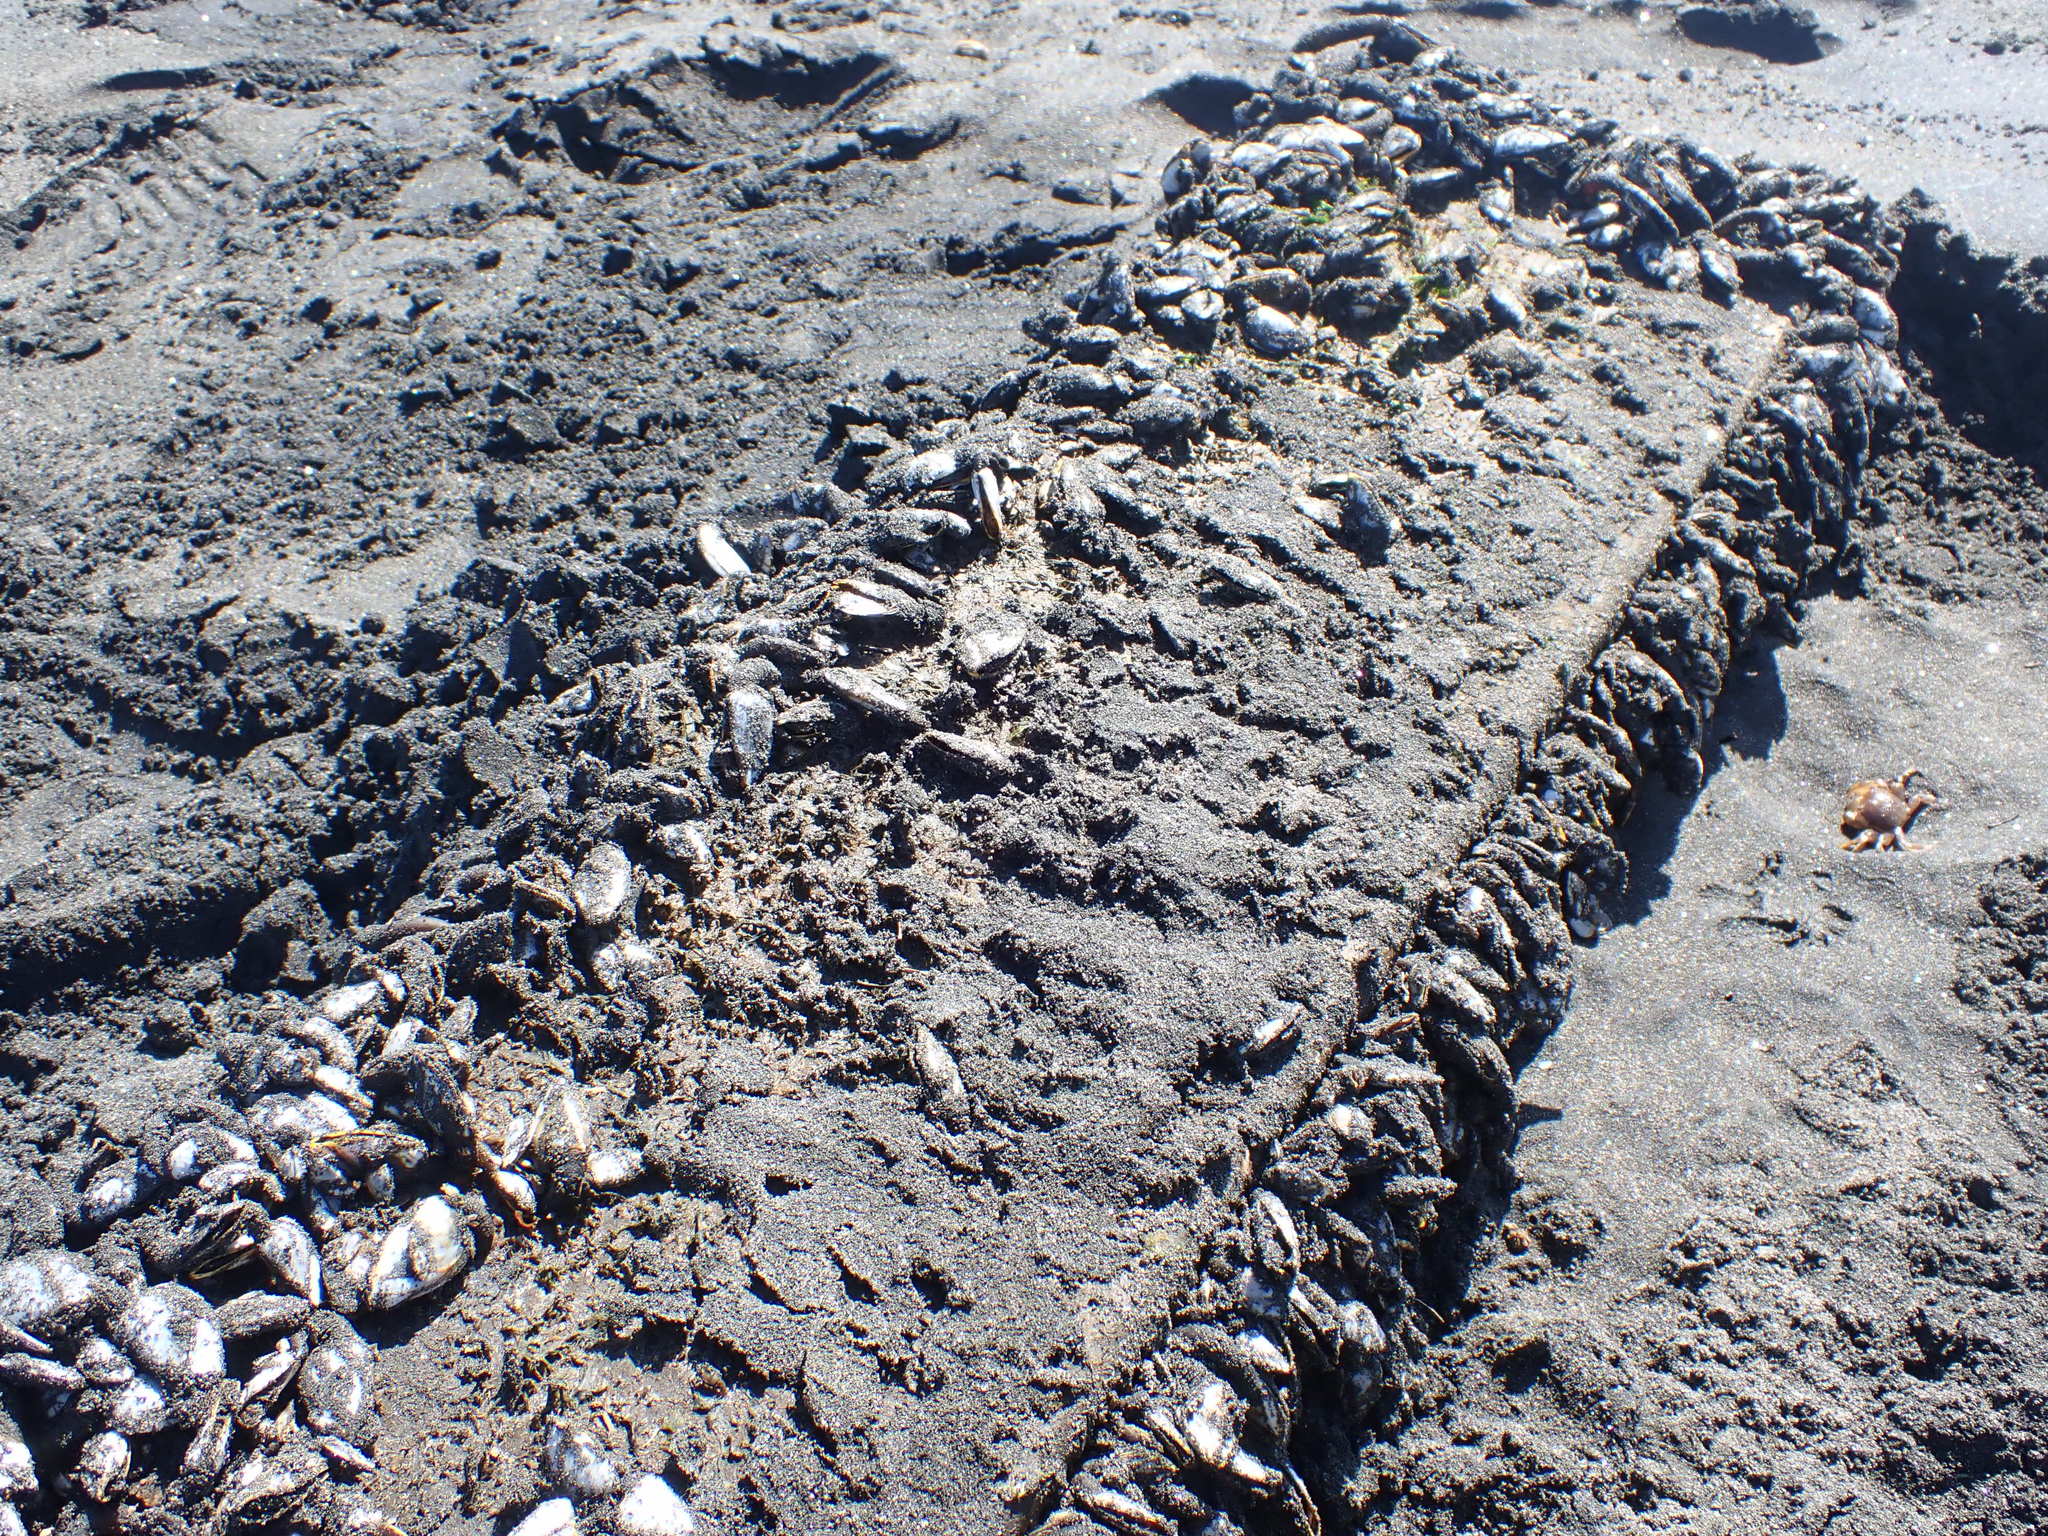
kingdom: Animalia
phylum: Arthropoda
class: Malacostraca
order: Decapoda
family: Grapsidae
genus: Planes
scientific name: Planes minutus
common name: Gulf weed crab
